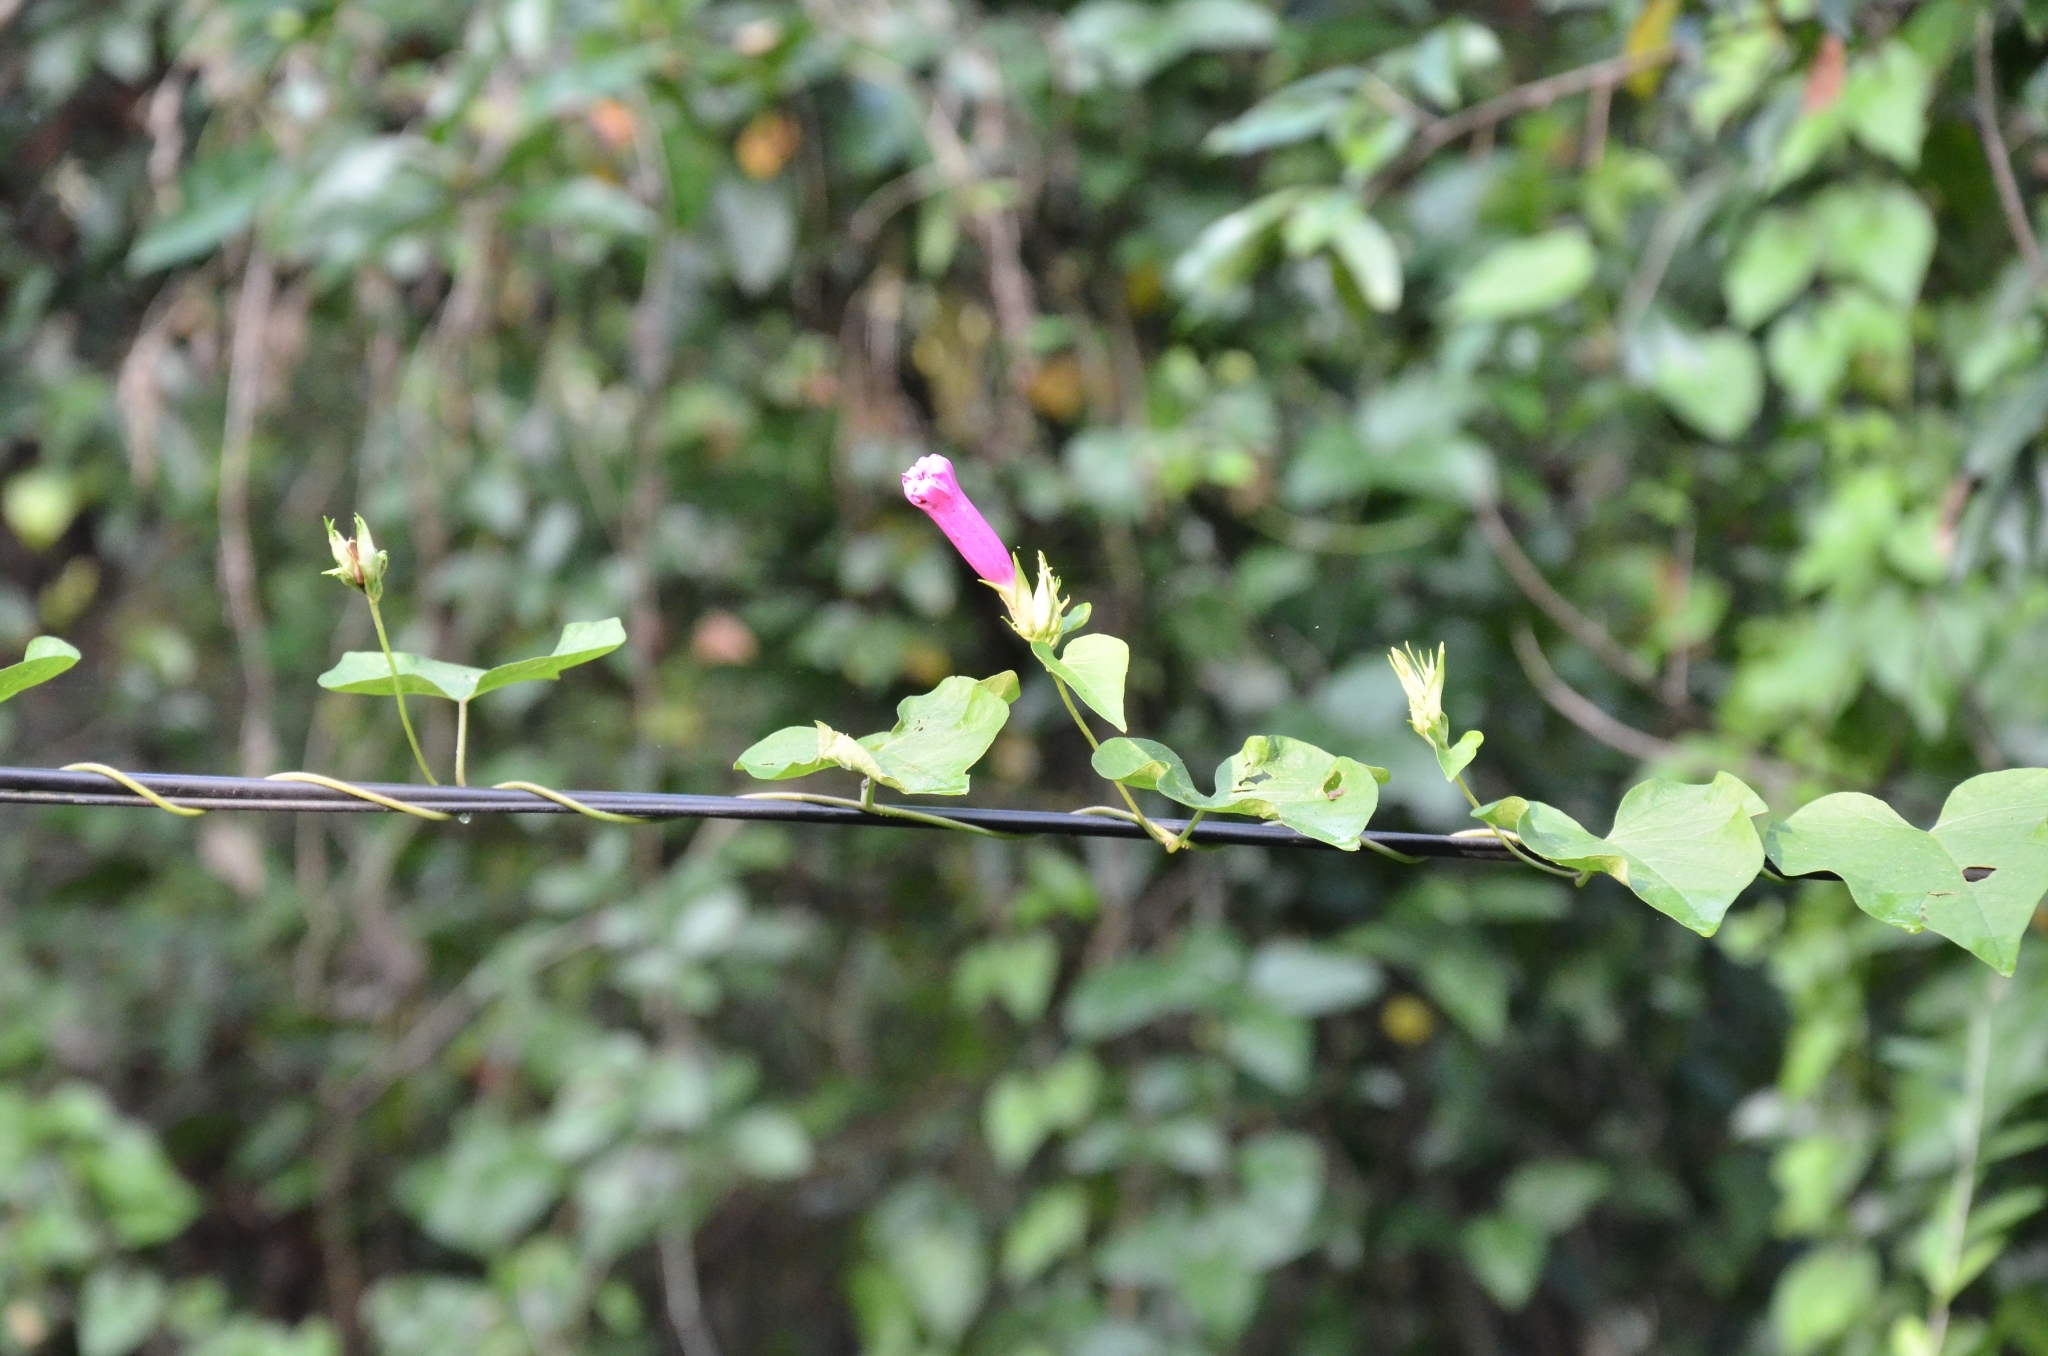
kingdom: Plantae
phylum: Tracheophyta
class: Magnoliopsida
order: Solanales
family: Convolvulaceae
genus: Ipomoea
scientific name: Ipomoea indica
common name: Blue dawnflower
